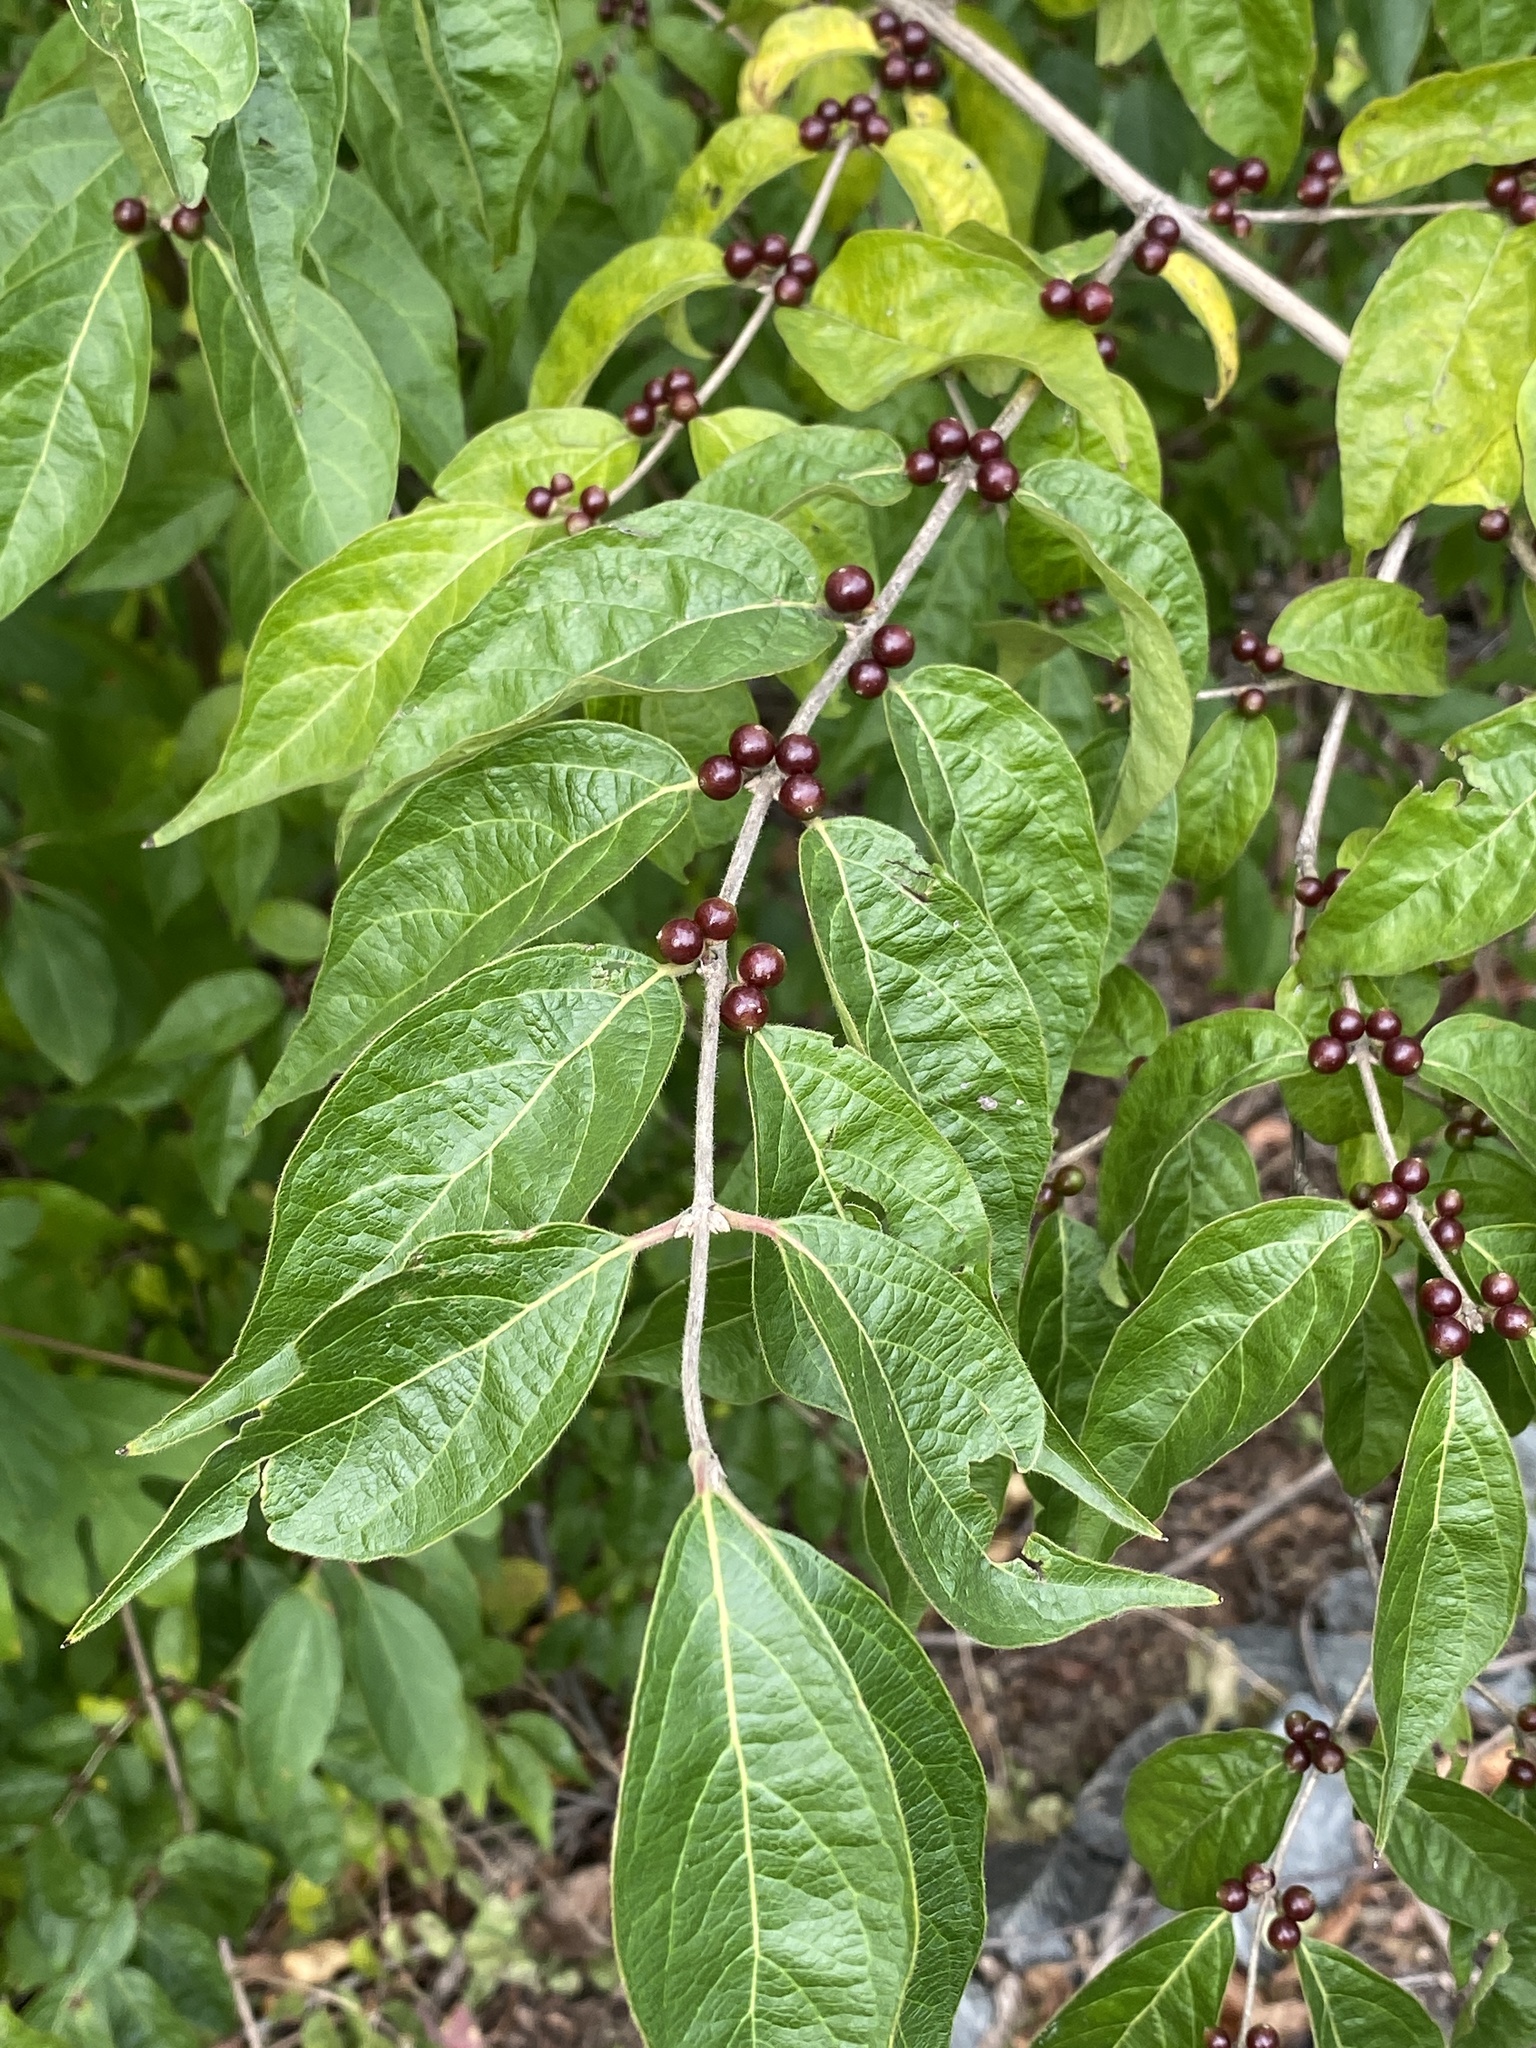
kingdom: Plantae
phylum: Tracheophyta
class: Magnoliopsida
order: Dipsacales
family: Caprifoliaceae
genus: Lonicera
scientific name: Lonicera maackii
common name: Amur honeysuckle
